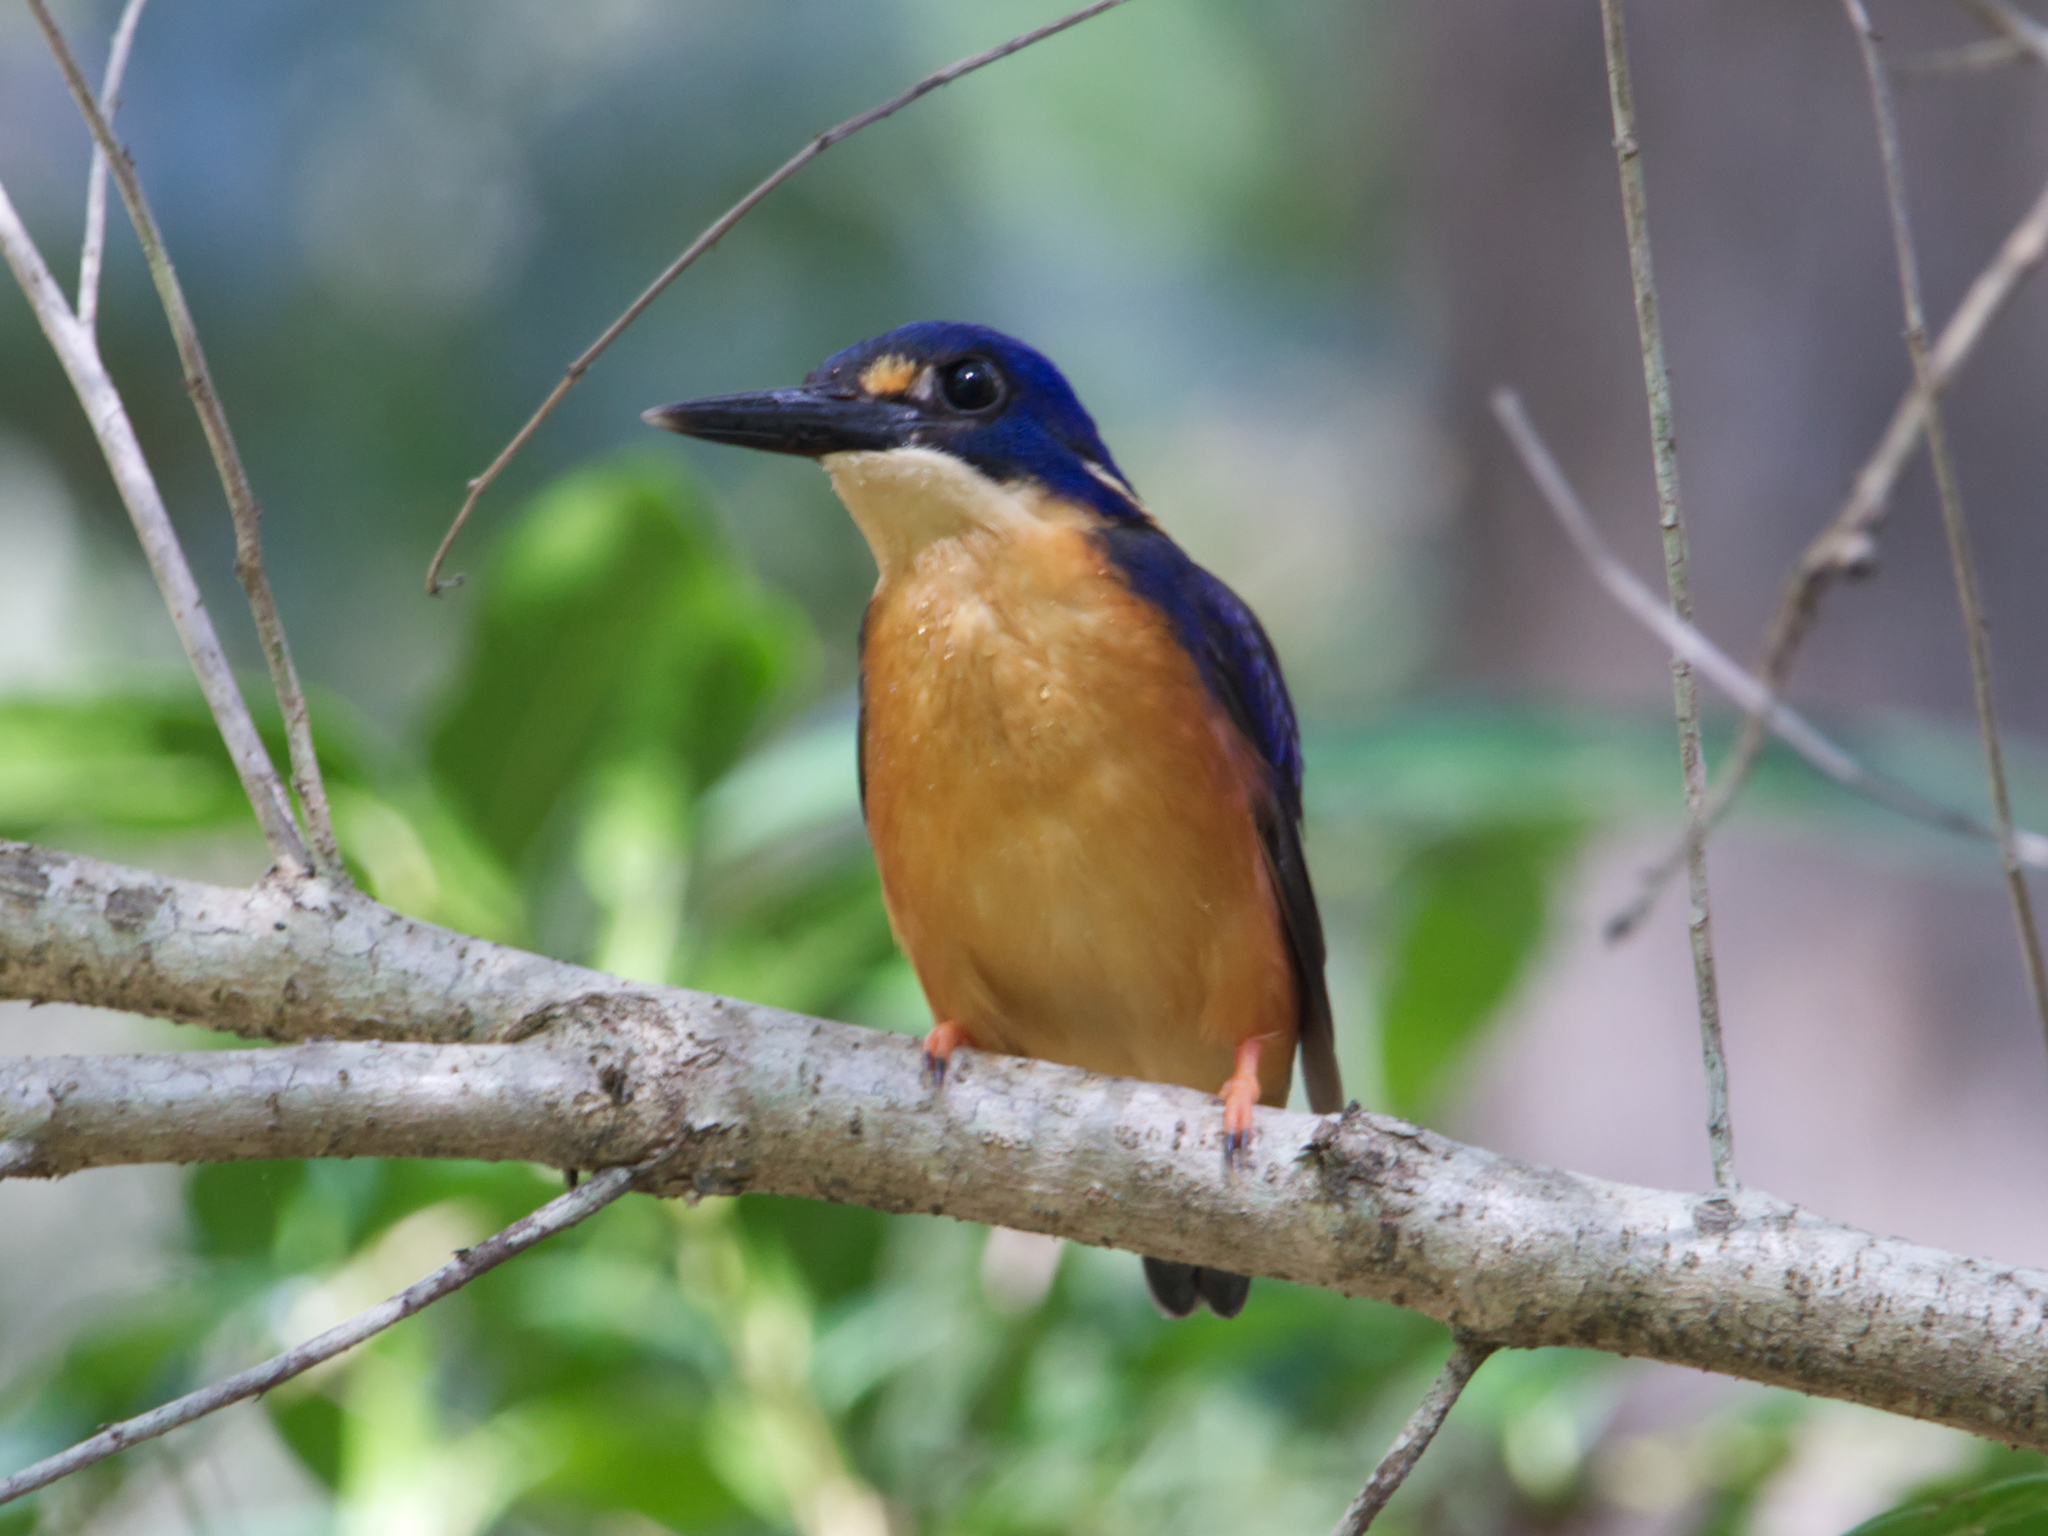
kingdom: Animalia
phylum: Chordata
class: Aves
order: Coraciiformes
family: Alcedinidae
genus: Ceyx
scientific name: Ceyx azureus
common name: Azure kingfisher
